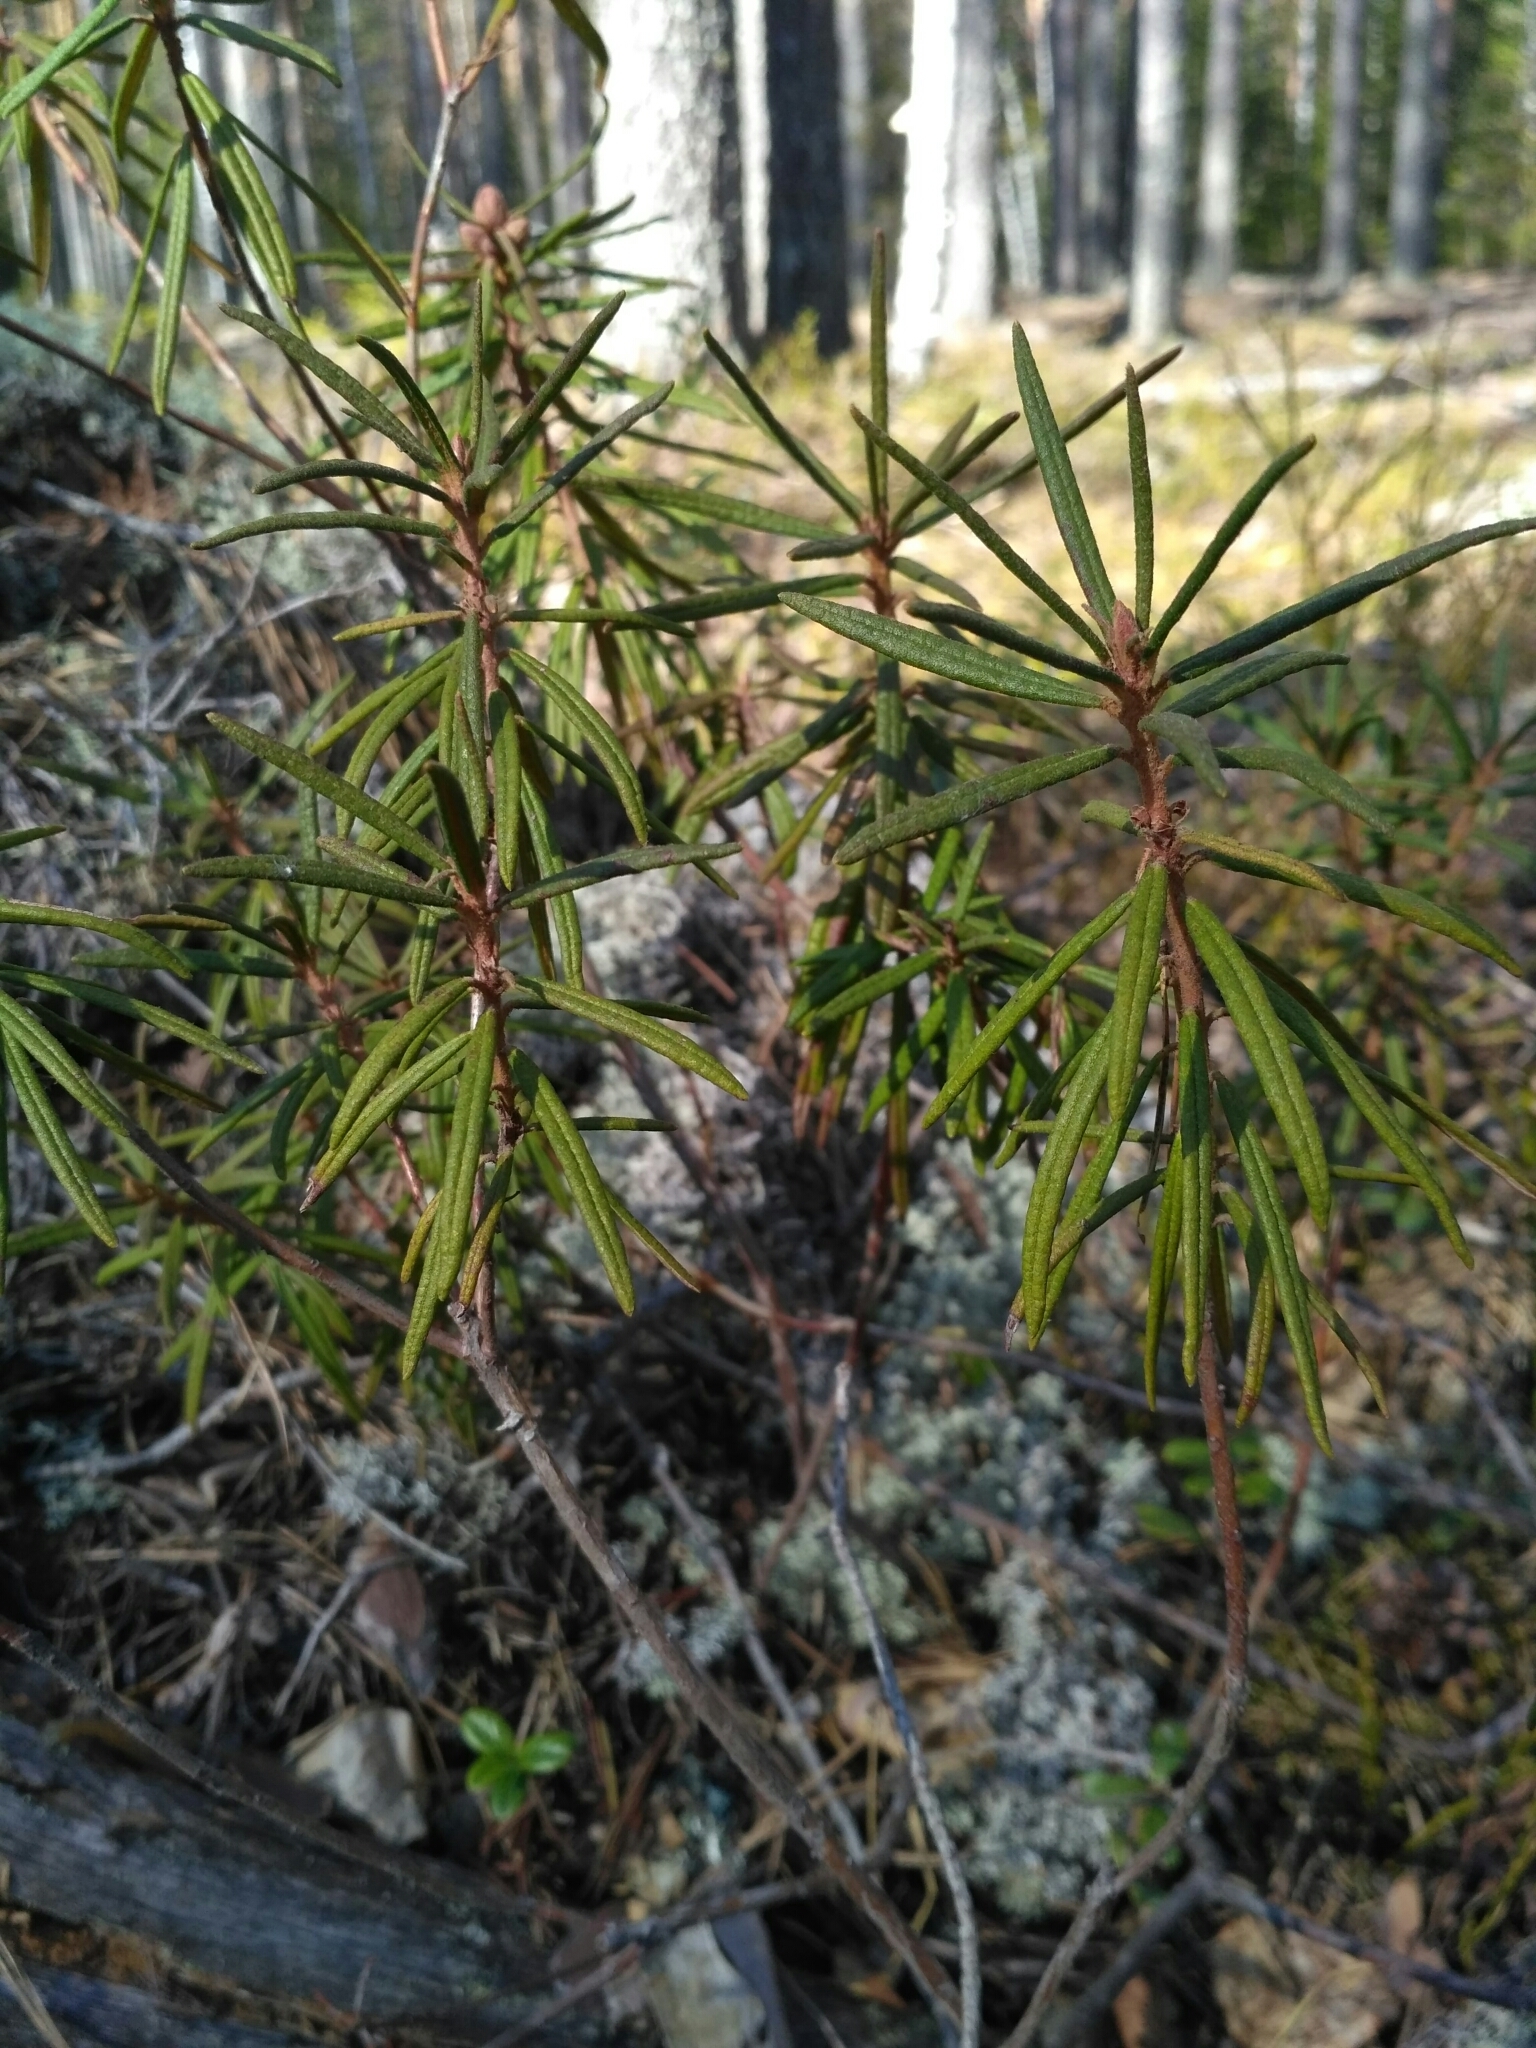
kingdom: Plantae
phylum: Tracheophyta
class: Magnoliopsida
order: Ericales
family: Ericaceae
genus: Rhododendron
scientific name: Rhododendron tomentosum
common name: Marsh labrador tea
